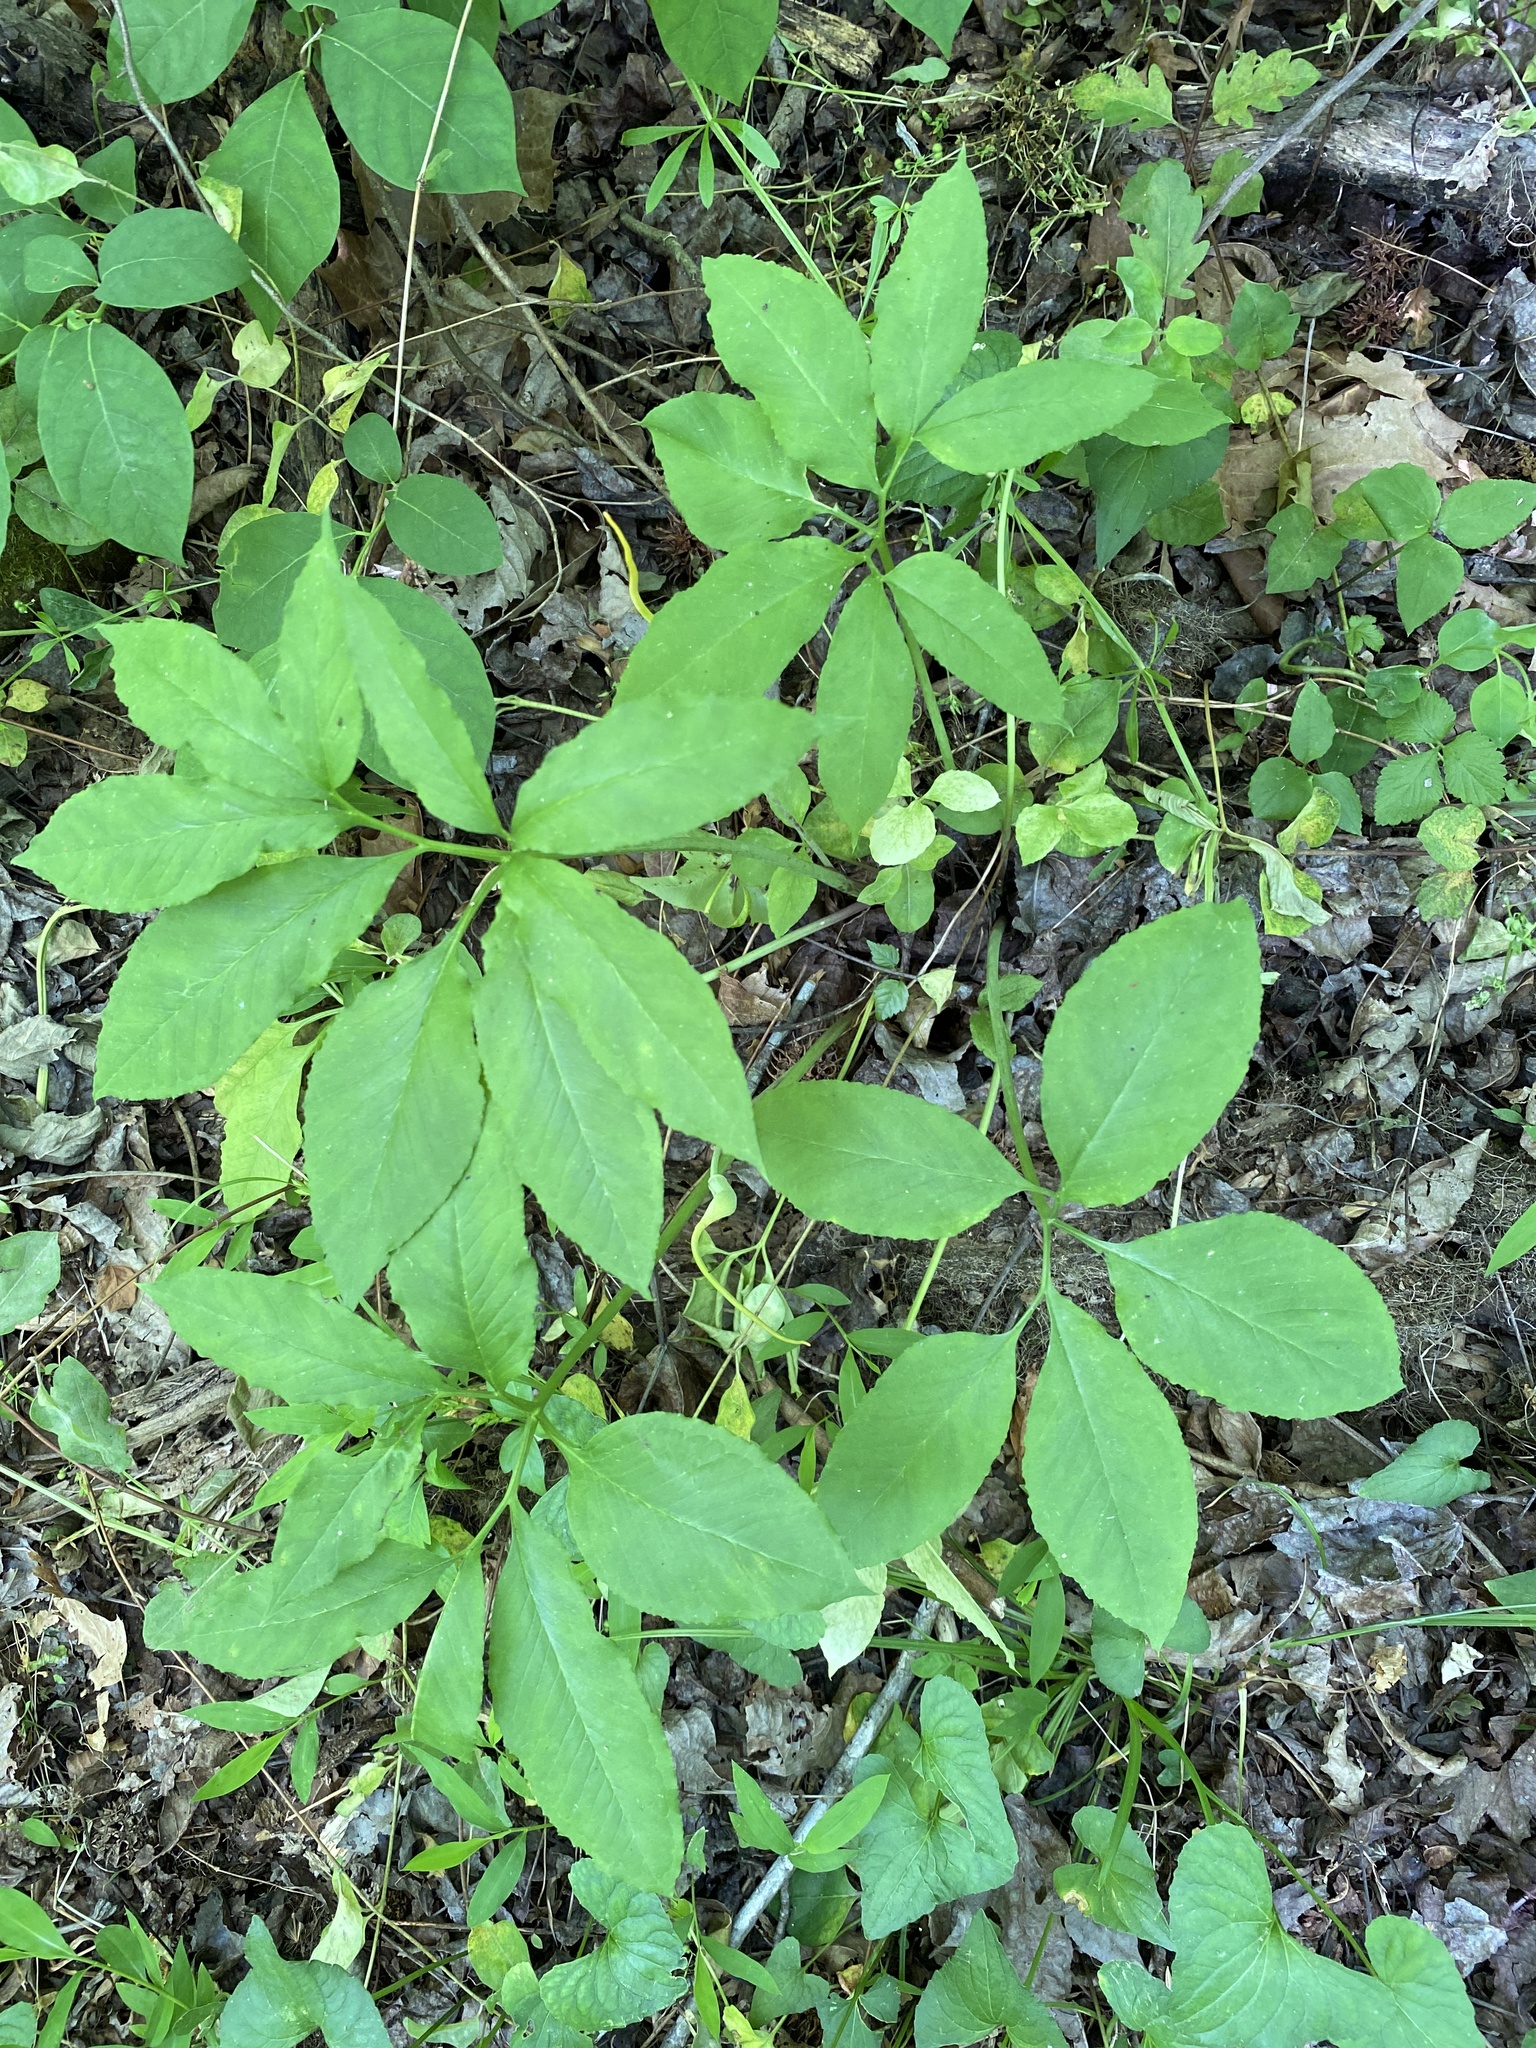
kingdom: Plantae
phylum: Tracheophyta
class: Liliopsida
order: Alismatales
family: Araceae
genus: Arisaema
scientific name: Arisaema dracontium
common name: Dragon-arum
